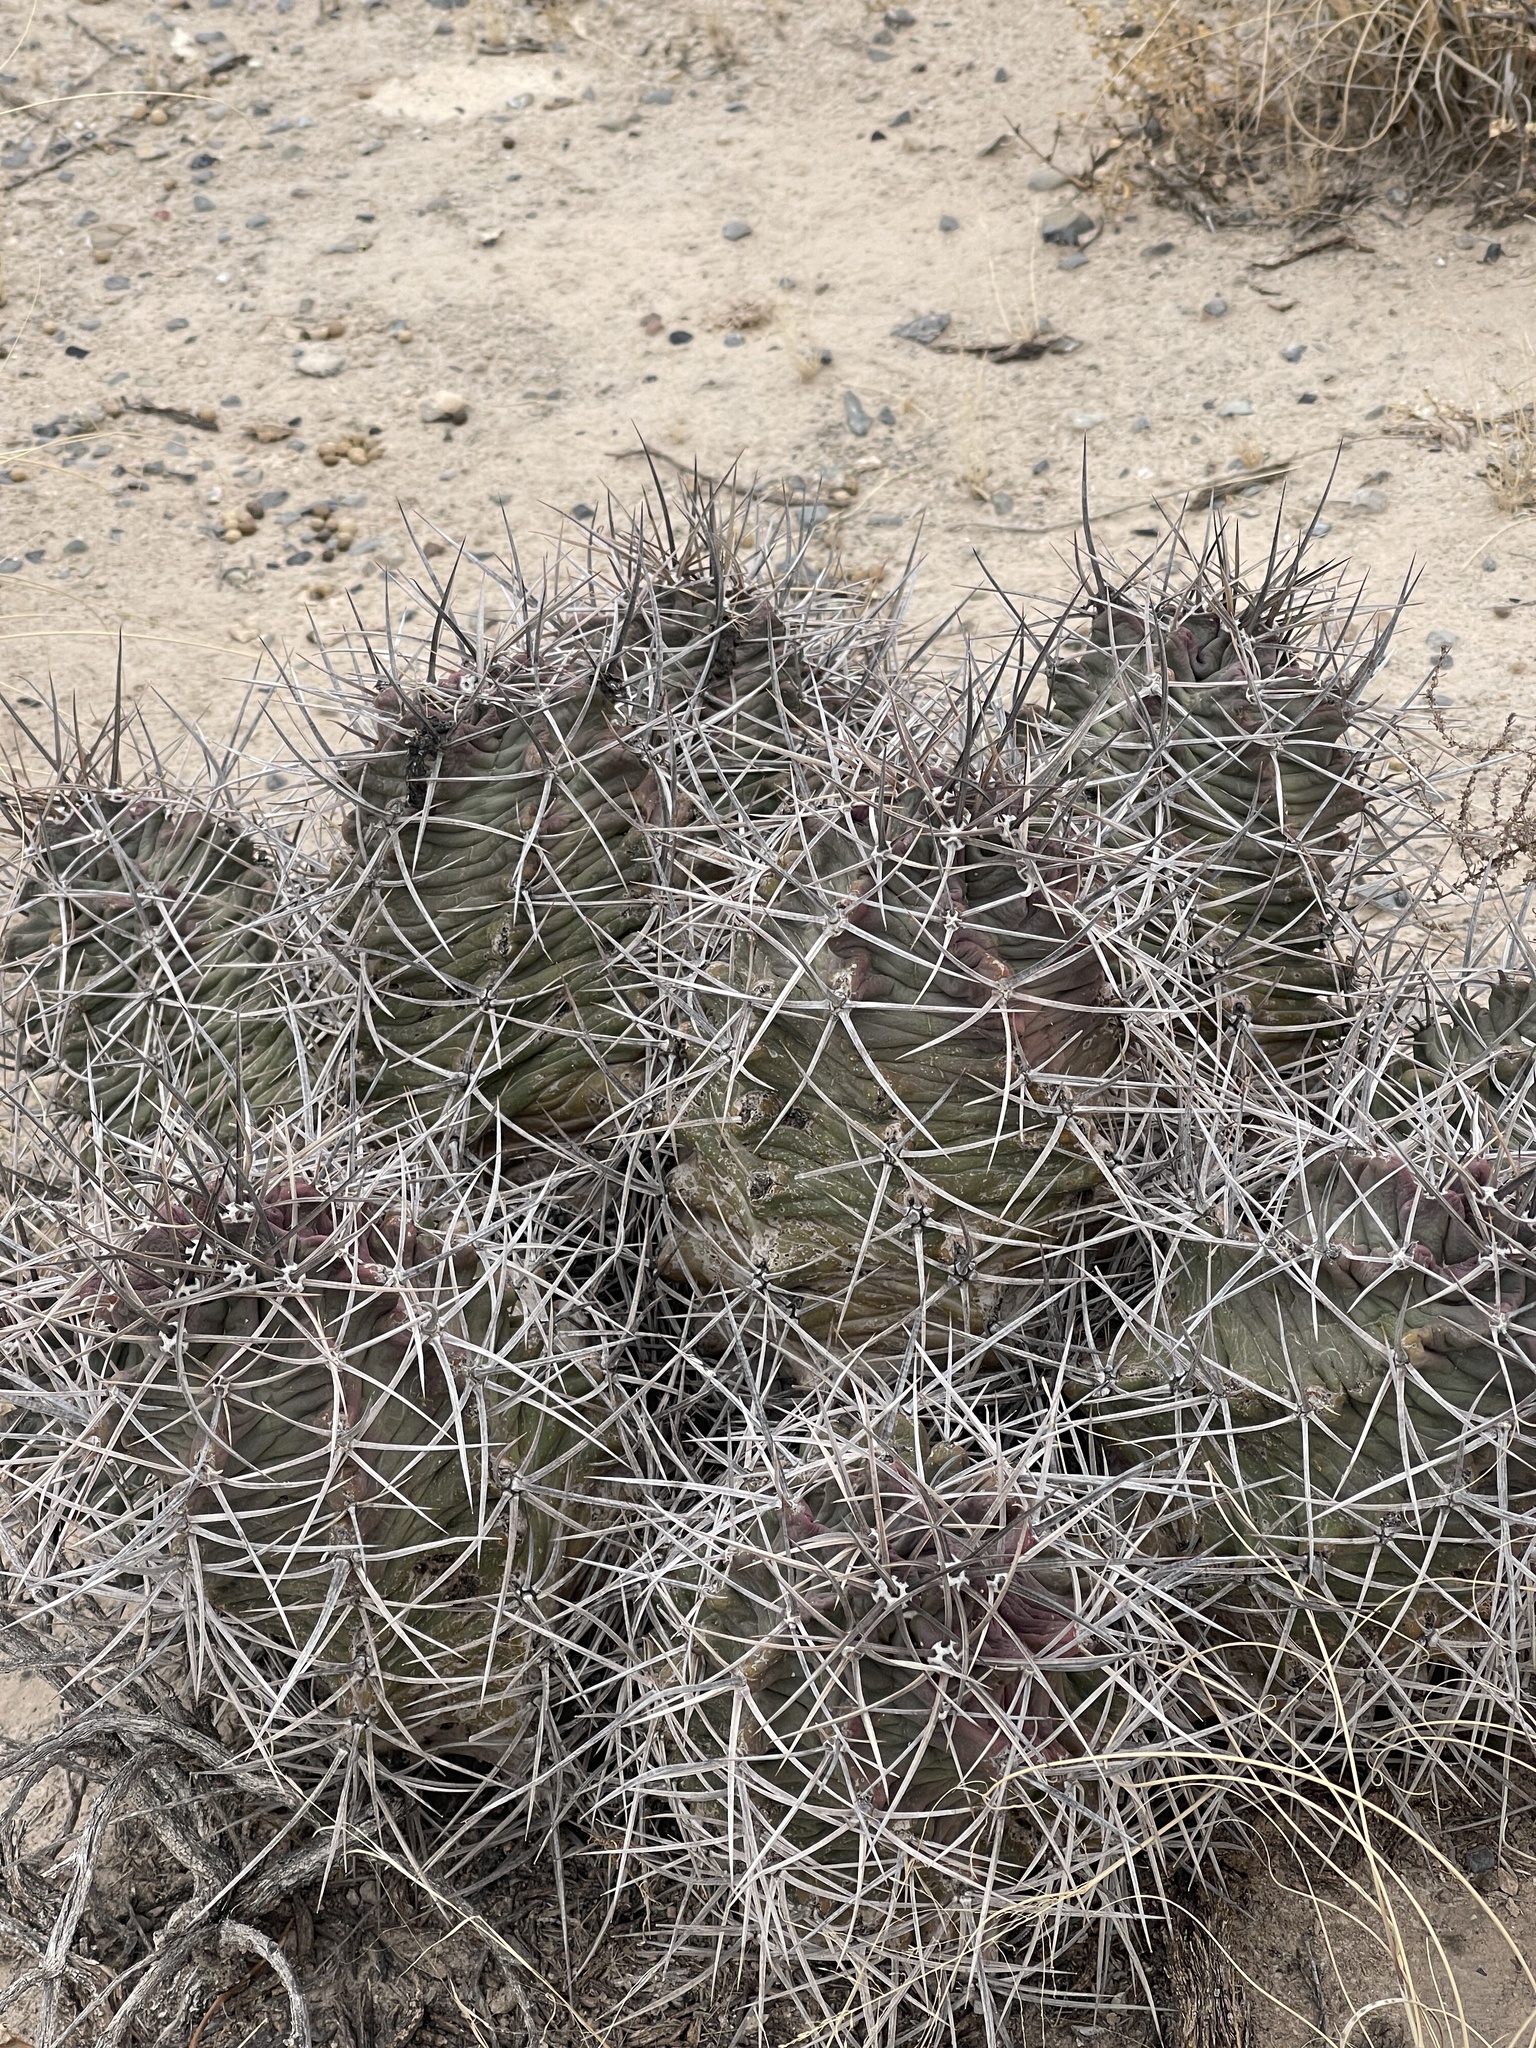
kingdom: Plantae
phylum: Tracheophyta
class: Magnoliopsida
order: Caryophyllales
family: Cactaceae
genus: Echinocereus
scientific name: Echinocereus triglochidiatus
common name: Claretcup hedgehog
